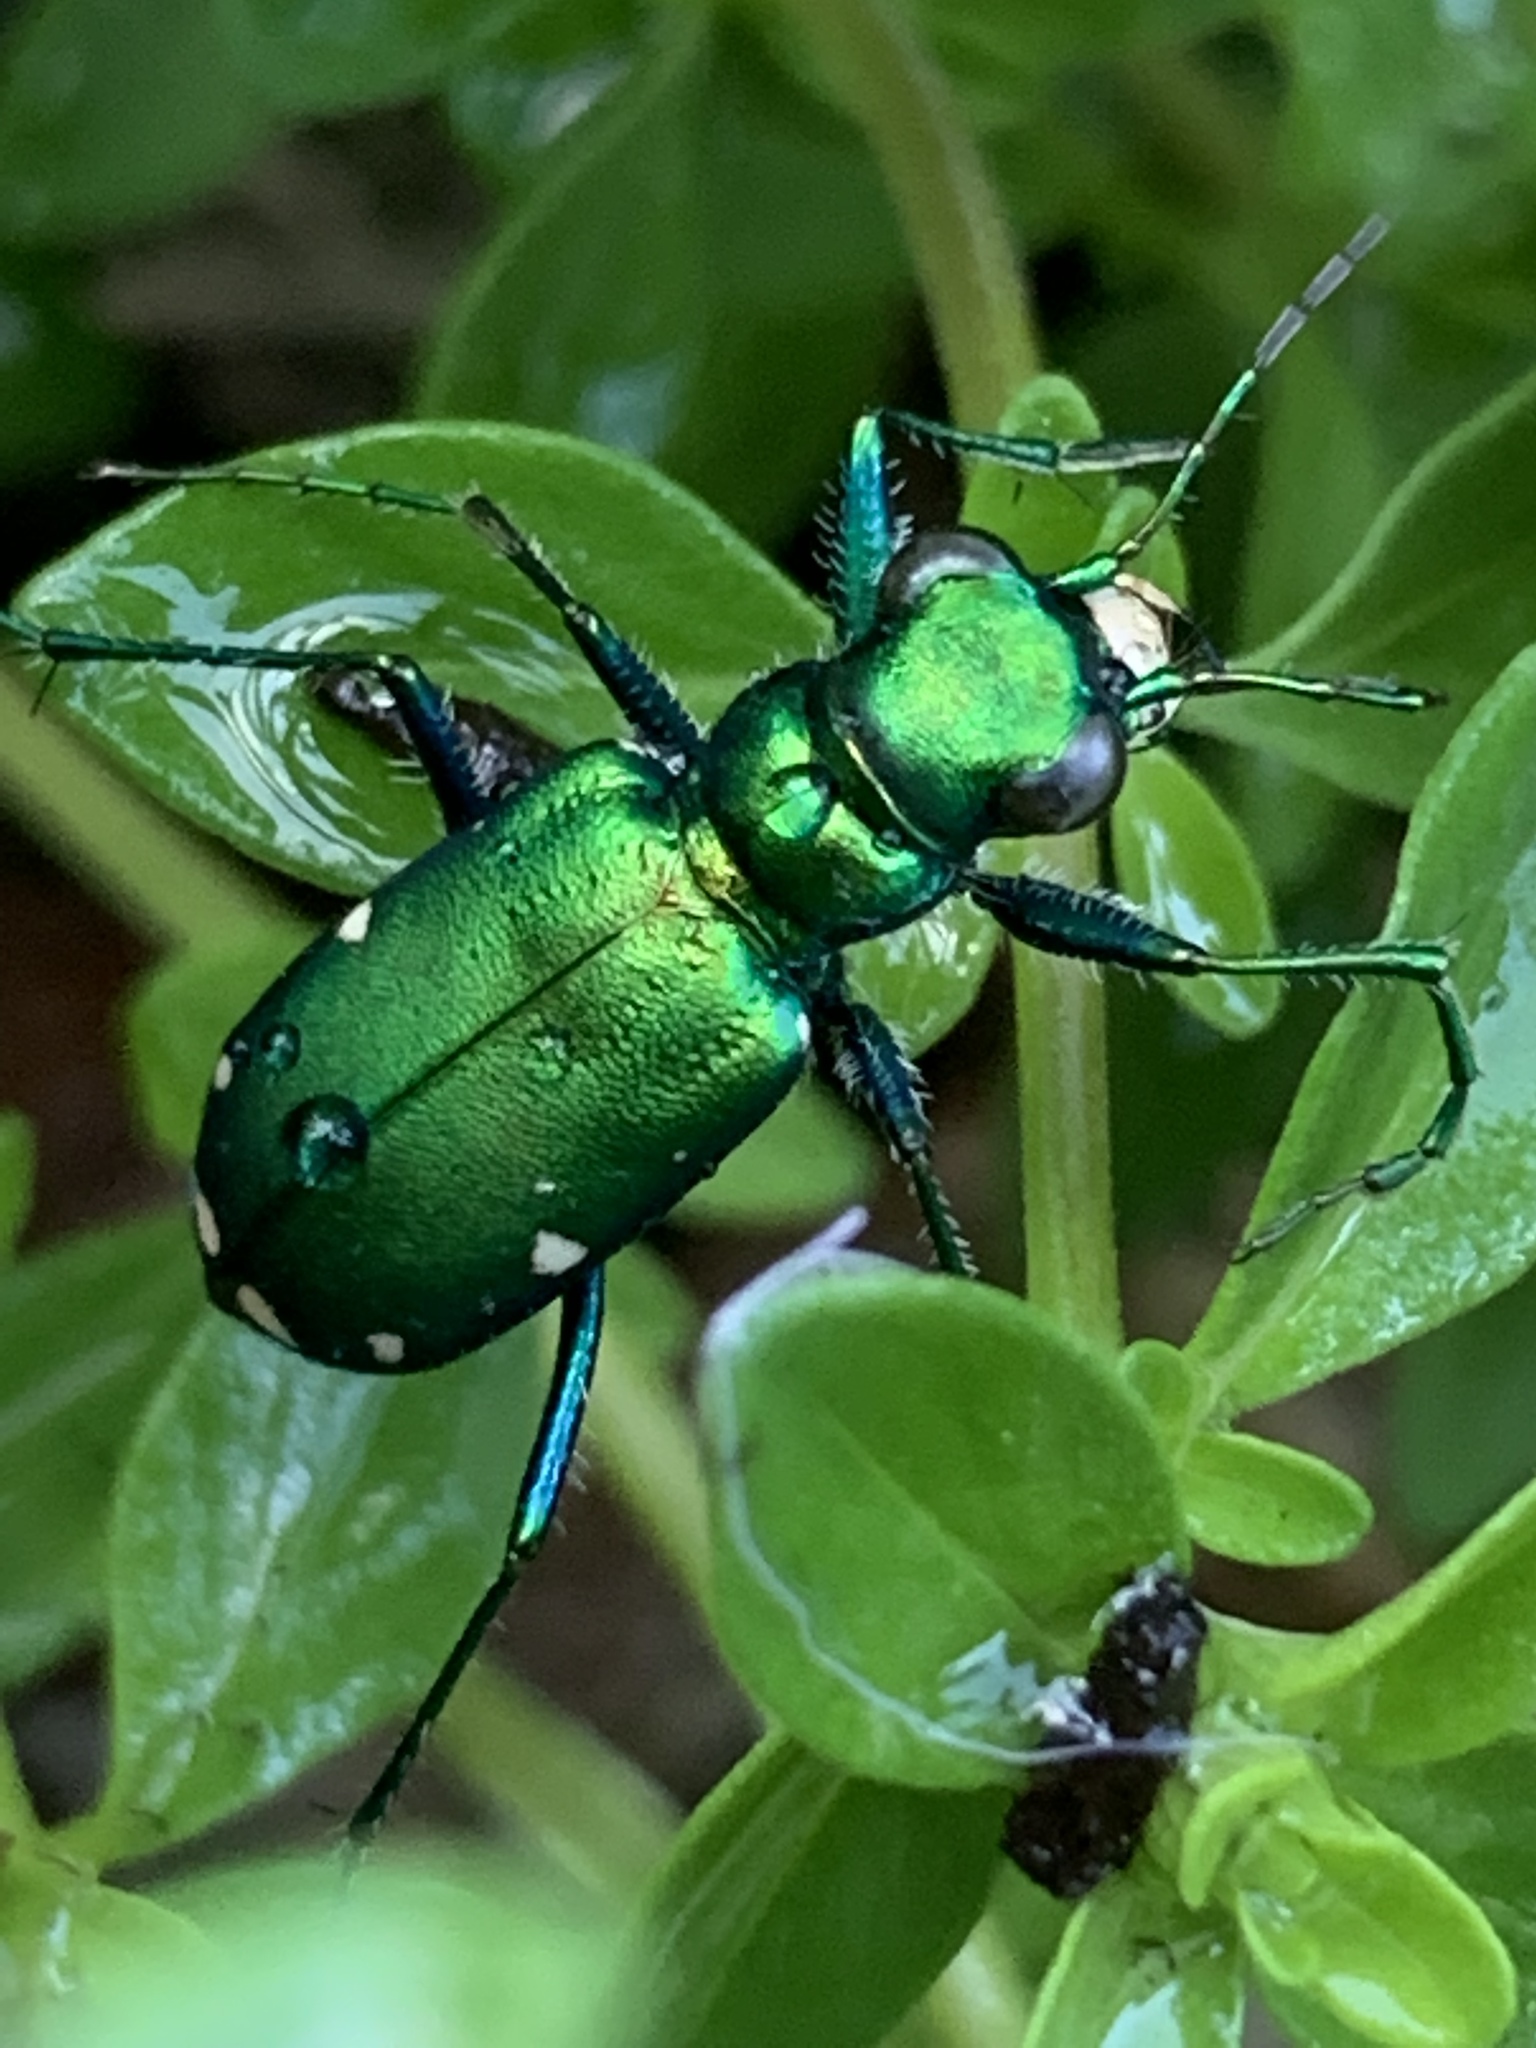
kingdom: Animalia
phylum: Arthropoda
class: Insecta
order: Coleoptera
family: Carabidae
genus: Cicindela
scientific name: Cicindela sexguttata
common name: Six-spotted tiger beetle
